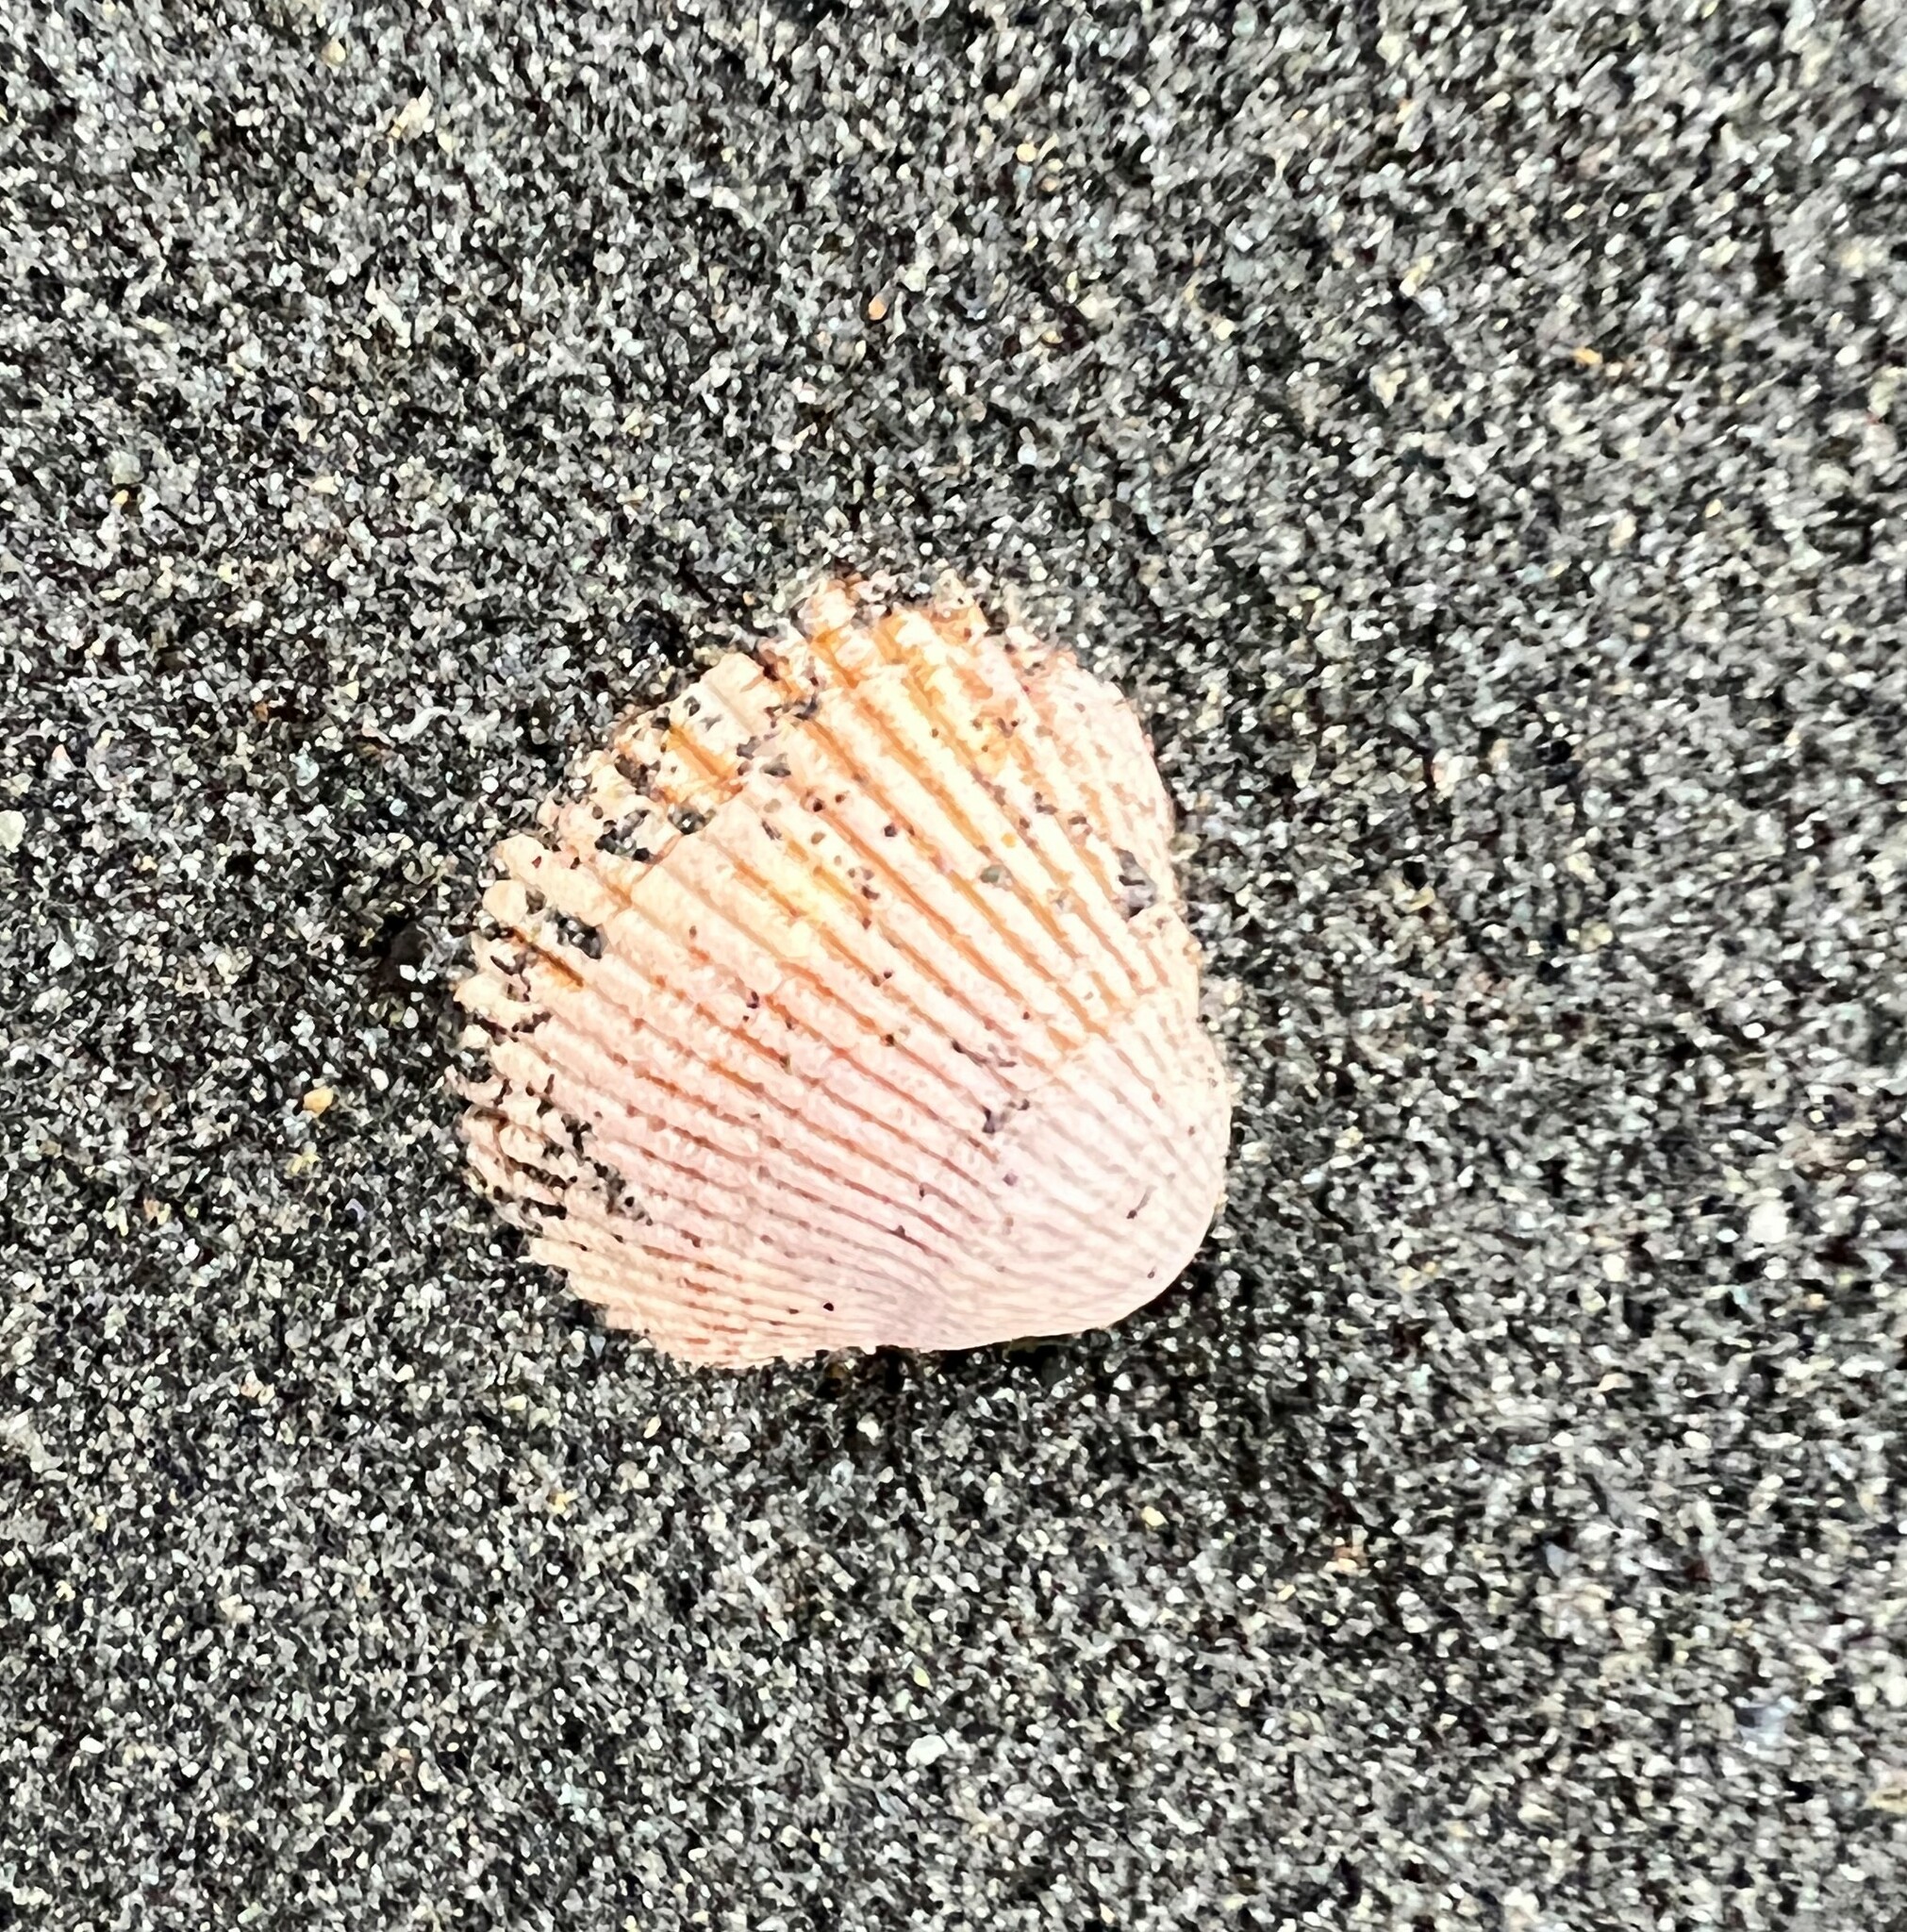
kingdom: Animalia
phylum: Mollusca
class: Bivalvia
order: Cardiida
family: Cardiidae
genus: Clinocardium
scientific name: Clinocardium nuttallii
